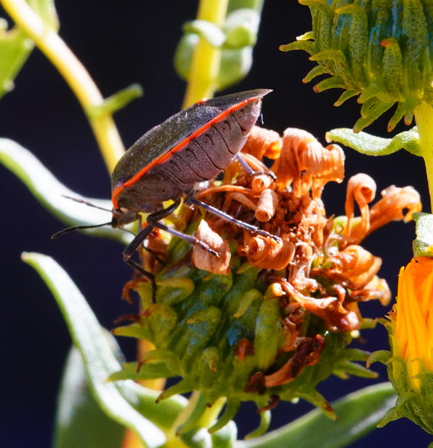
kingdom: Animalia
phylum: Arthropoda
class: Insecta
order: Hemiptera
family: Pentatomidae
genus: Chlorochroa
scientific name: Chlorochroa ligata
